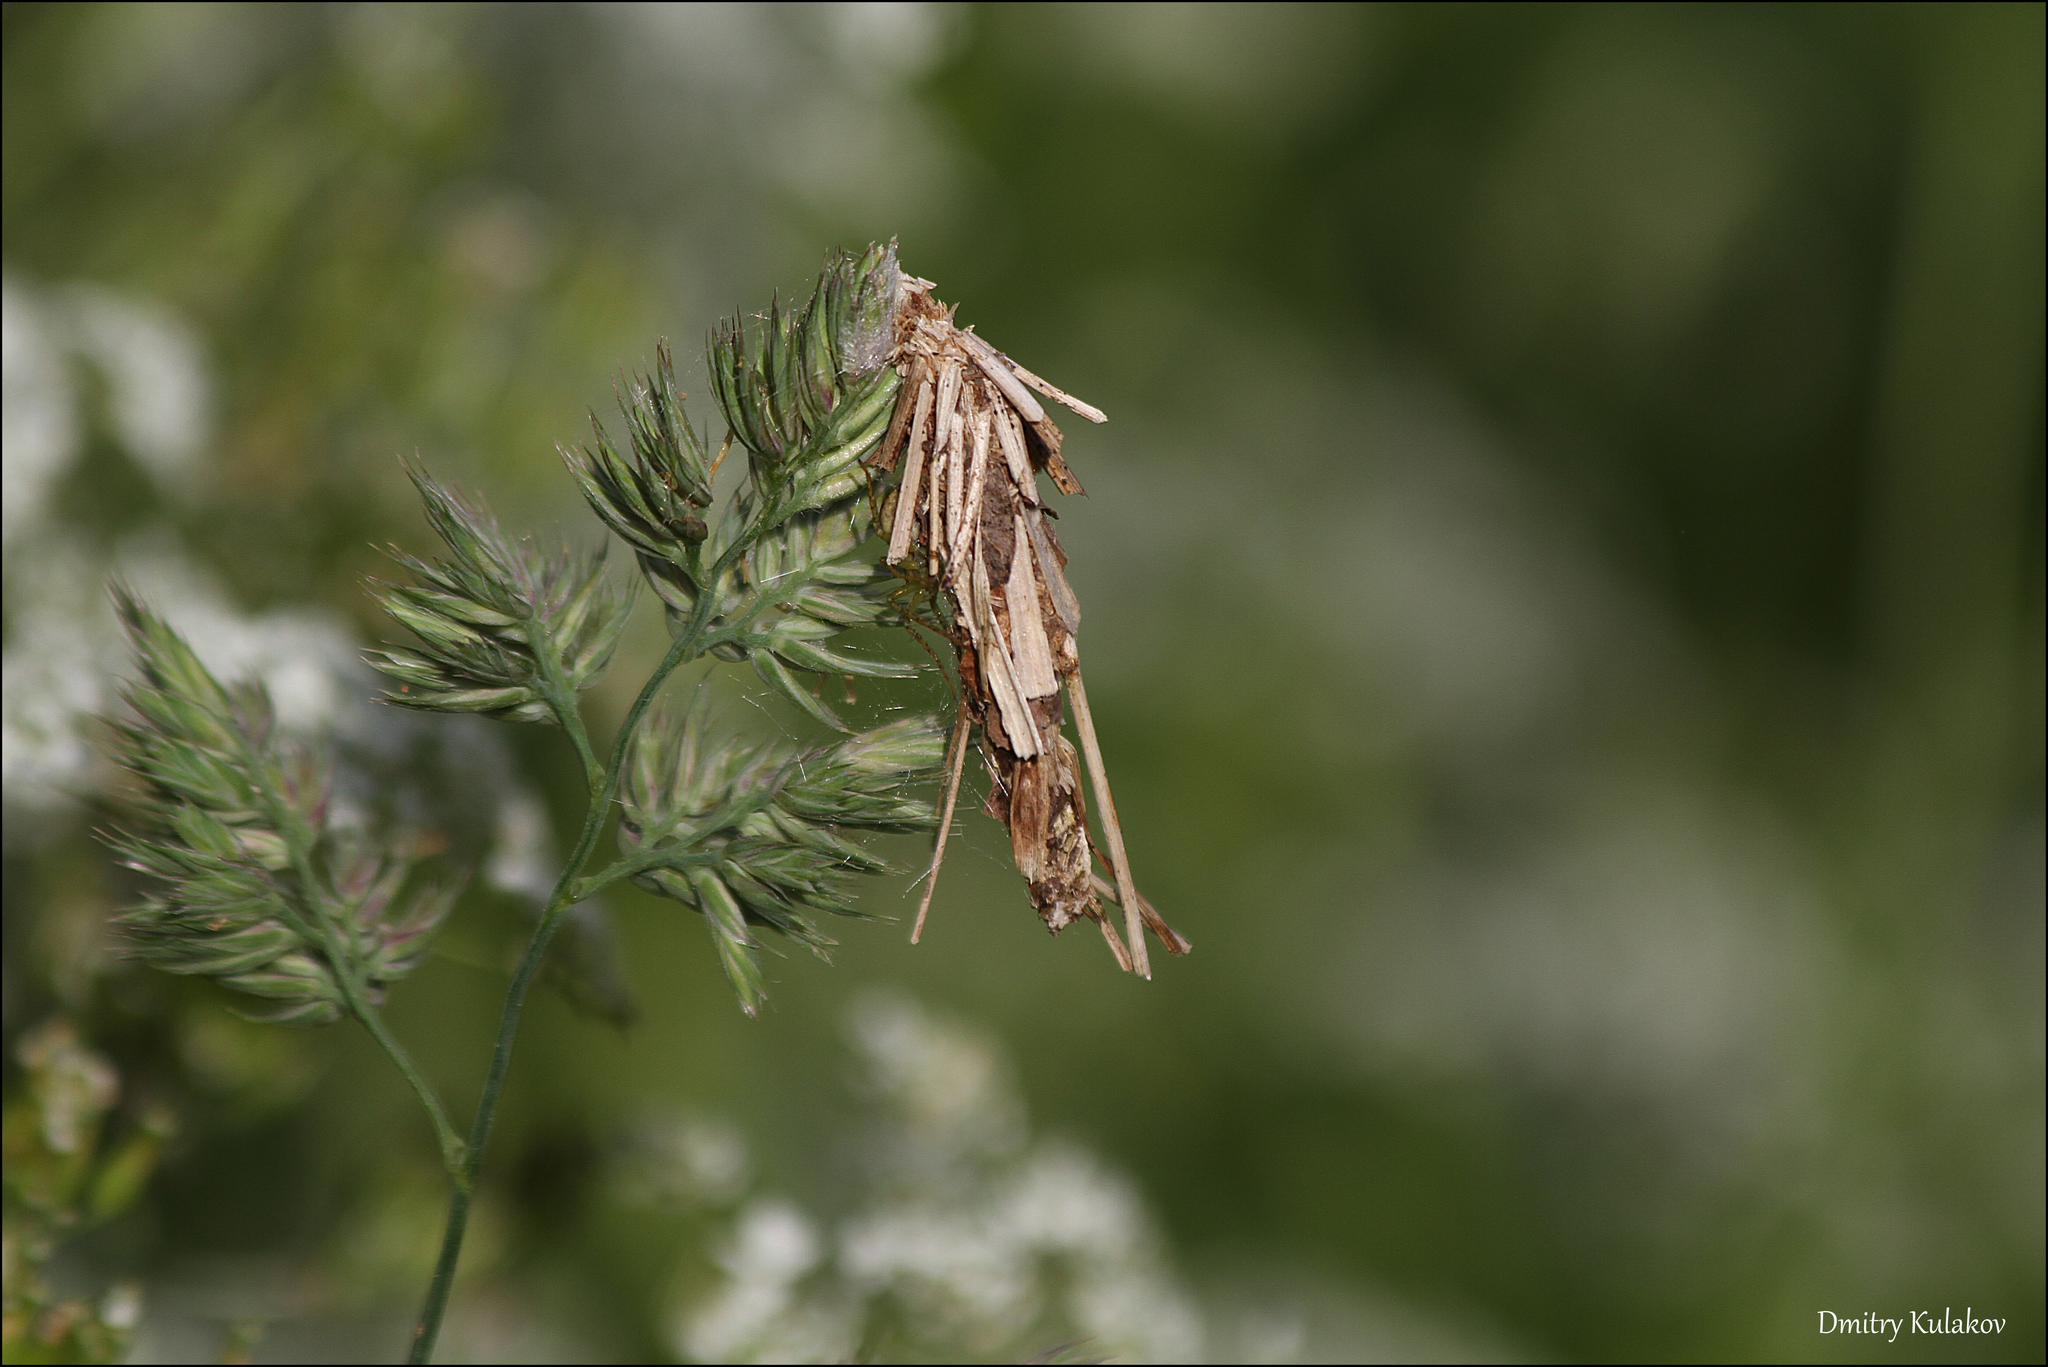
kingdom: Animalia
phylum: Arthropoda
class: Insecta
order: Lepidoptera
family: Psychidae
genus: Canephora
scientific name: Canephora hirsuta
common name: Hairy sweep
